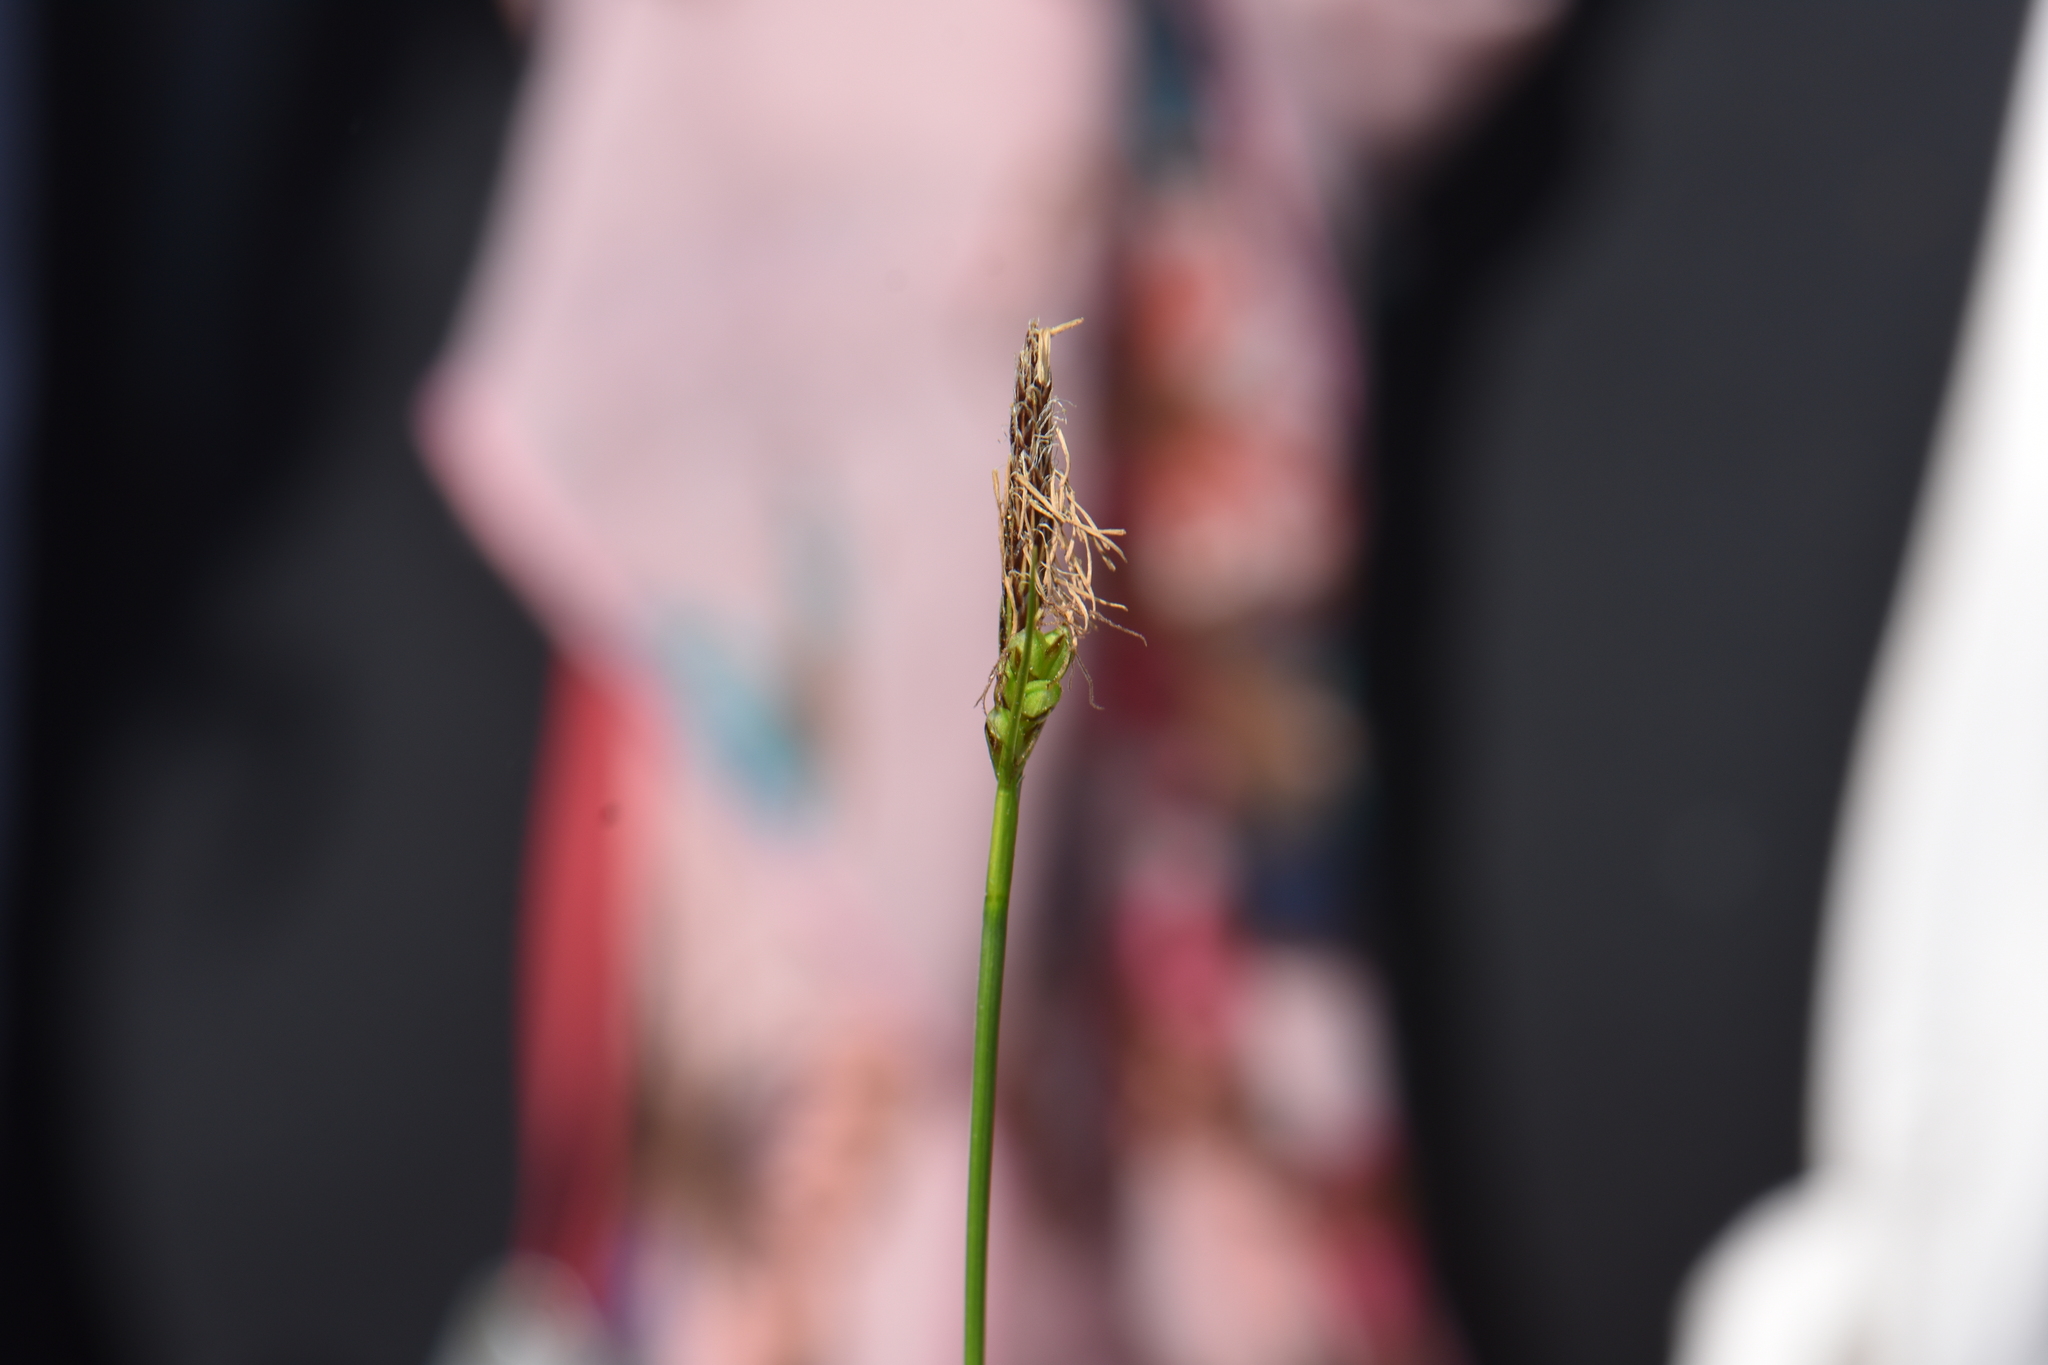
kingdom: Plantae
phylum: Tracheophyta
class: Liliopsida
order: Poales
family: Cyperaceae
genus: Carex
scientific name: Carex halleriana
